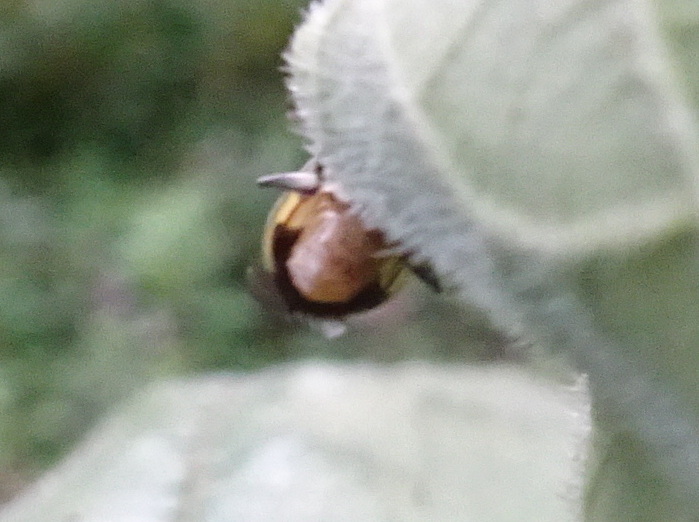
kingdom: Animalia
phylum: Arthropoda
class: Insecta
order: Coleoptera
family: Chrysomelidae
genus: Diabrotica
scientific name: Diabrotica undecimpunctata
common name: Spotted cucumber beetle
